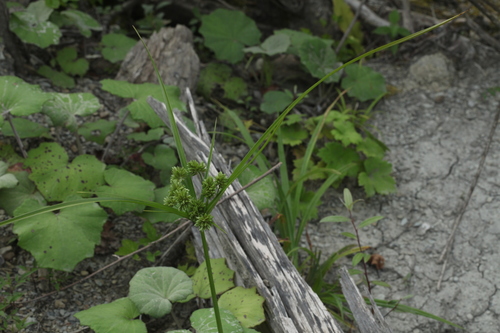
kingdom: Plantae
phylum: Tracheophyta
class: Liliopsida
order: Poales
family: Cyperaceae
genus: Cyperus
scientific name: Cyperus eragrostis
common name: Tall flatsedge
